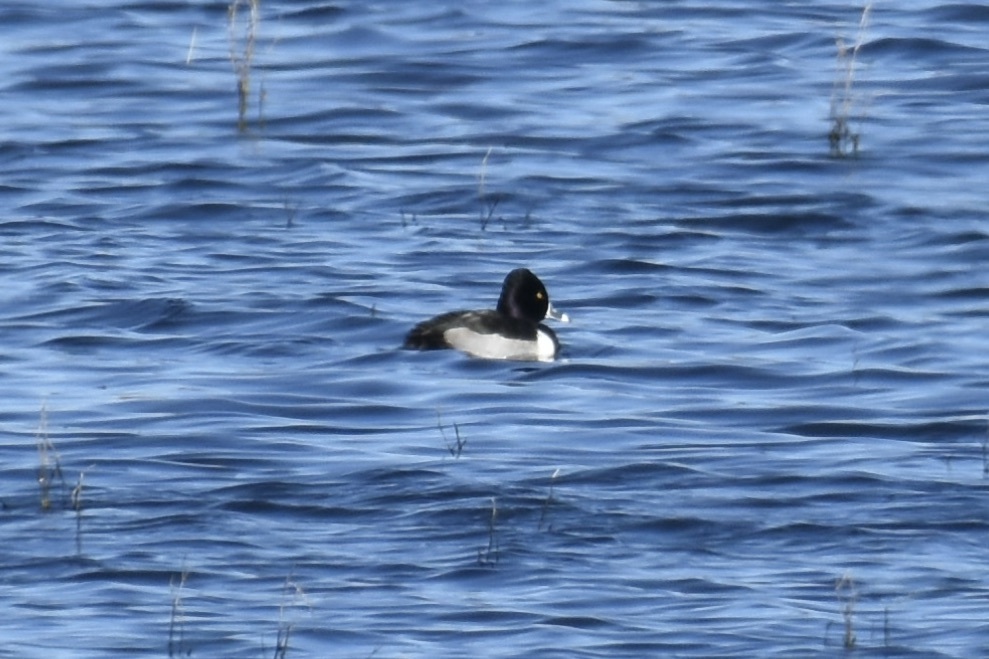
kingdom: Animalia
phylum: Chordata
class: Aves
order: Anseriformes
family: Anatidae
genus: Aythya
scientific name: Aythya collaris
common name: Ring-necked duck
